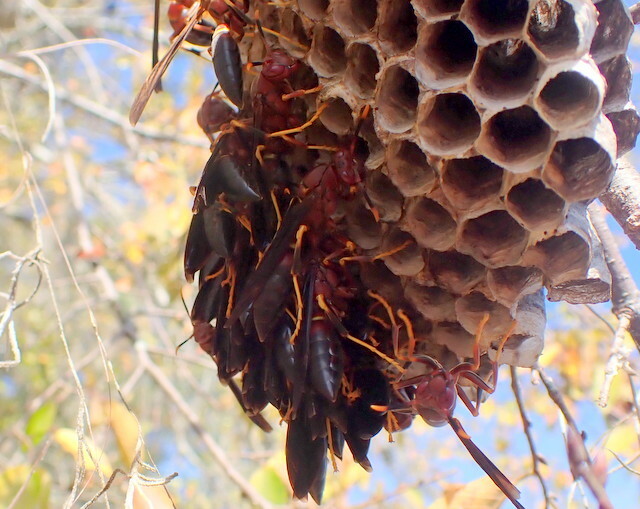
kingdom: Animalia
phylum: Arthropoda
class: Insecta
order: Hymenoptera
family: Eumenidae
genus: Polistes
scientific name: Polistes annularis
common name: Ringed paper wasp
